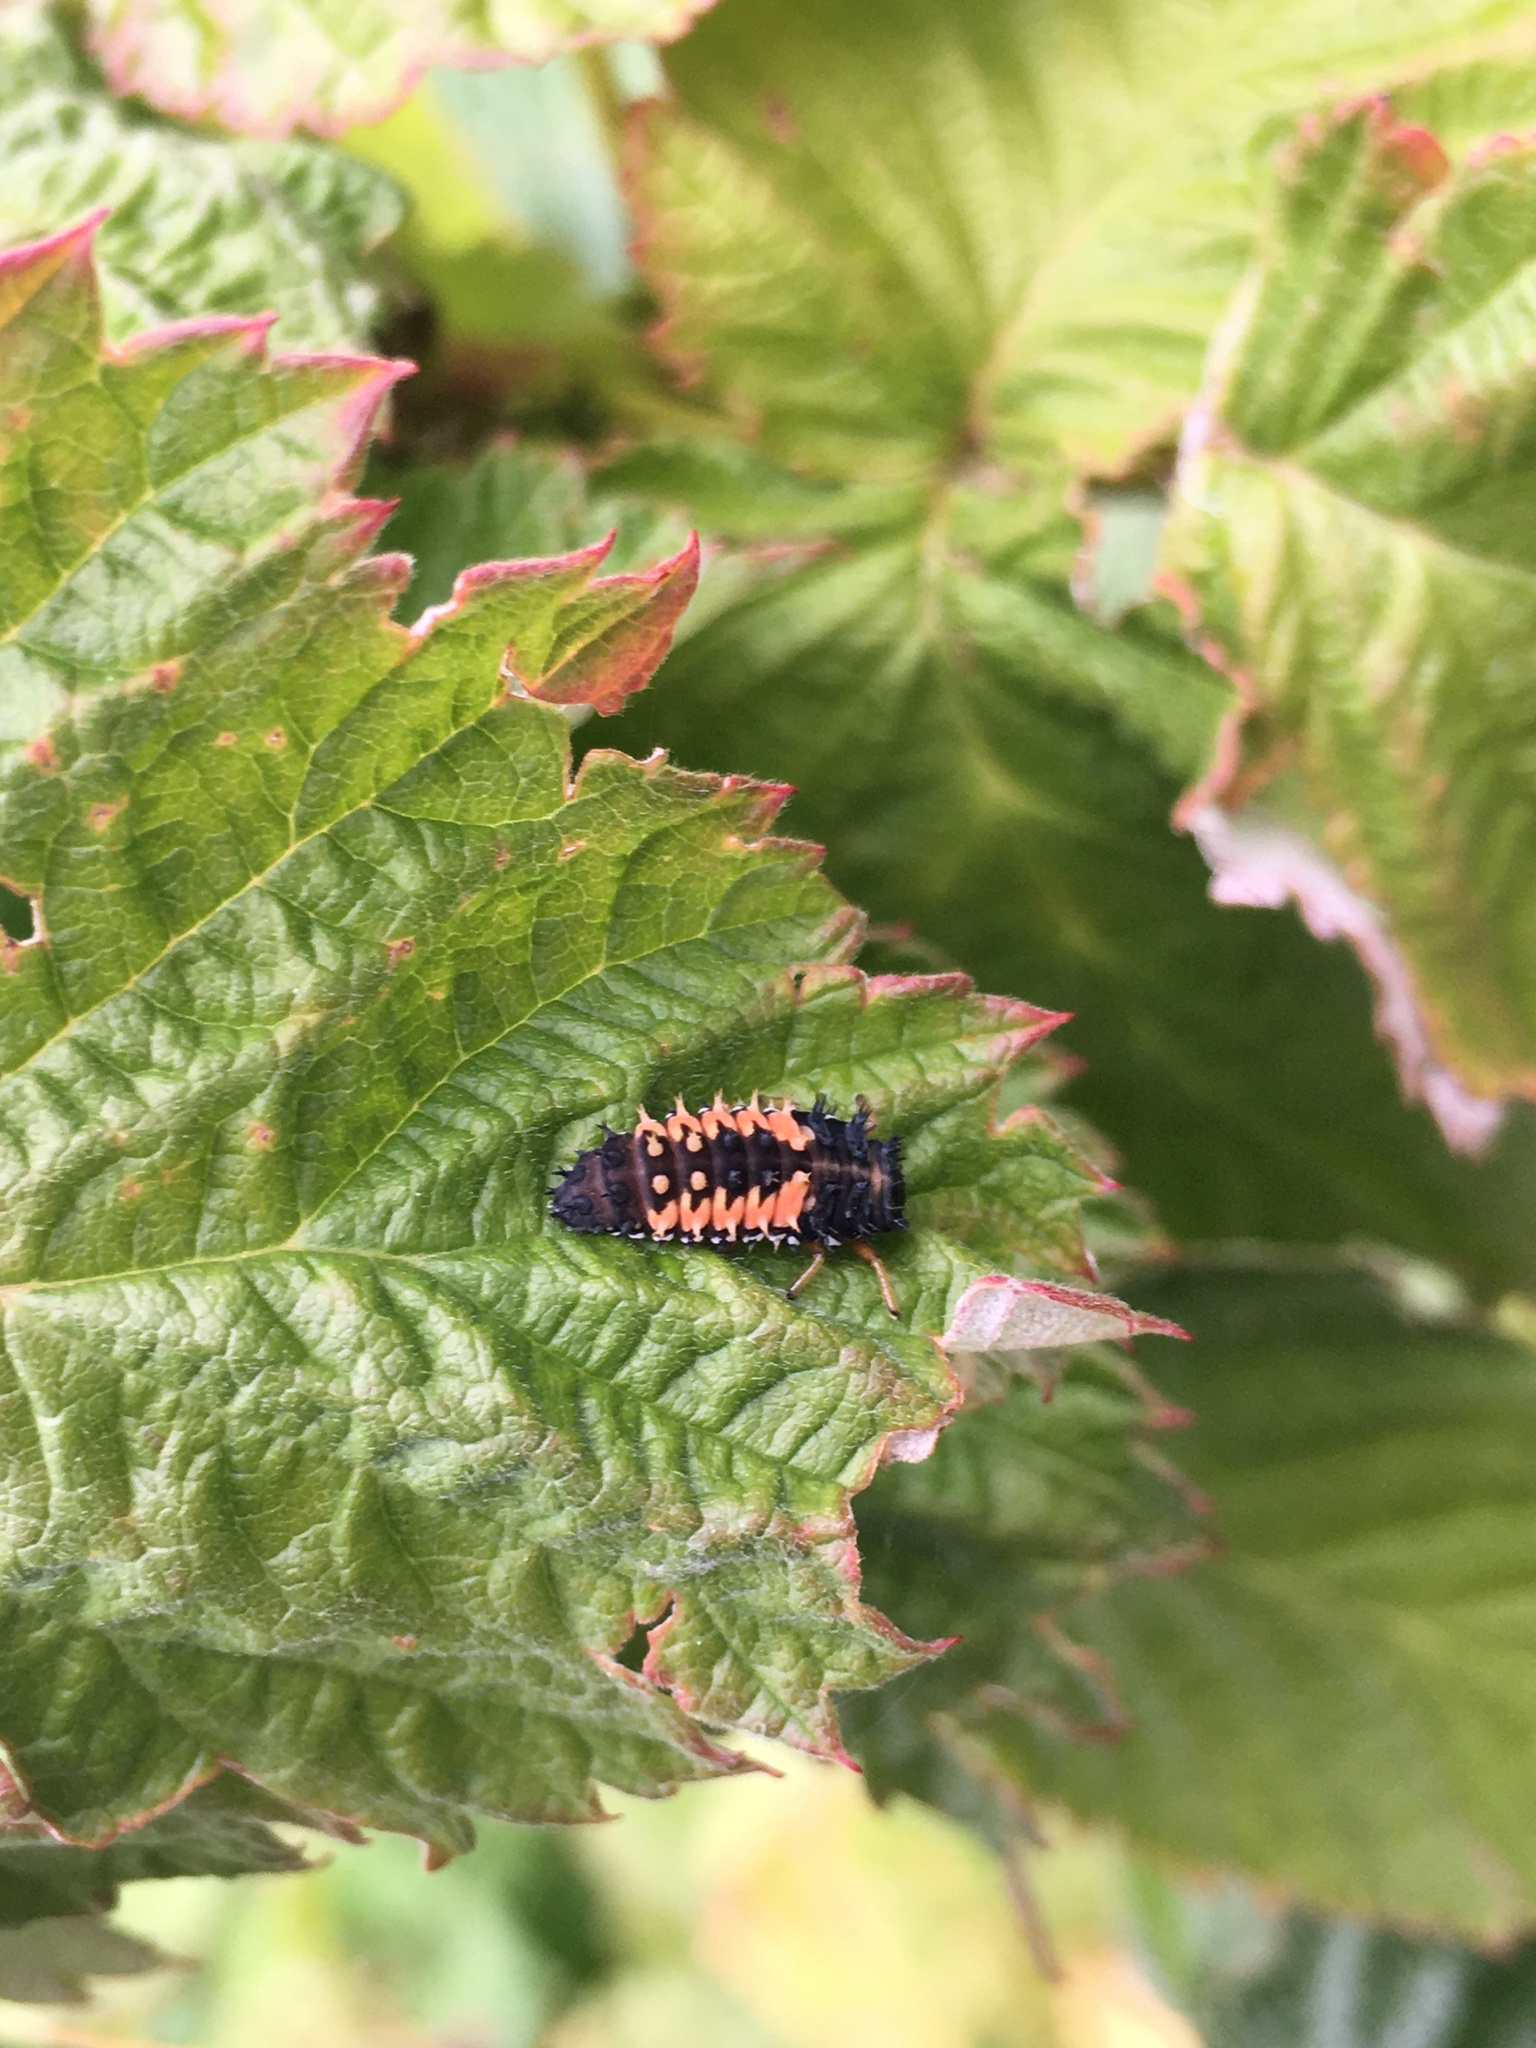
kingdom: Animalia
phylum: Arthropoda
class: Insecta
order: Coleoptera
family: Coccinellidae
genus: Harmonia
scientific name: Harmonia axyridis
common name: Harlequin ladybird
